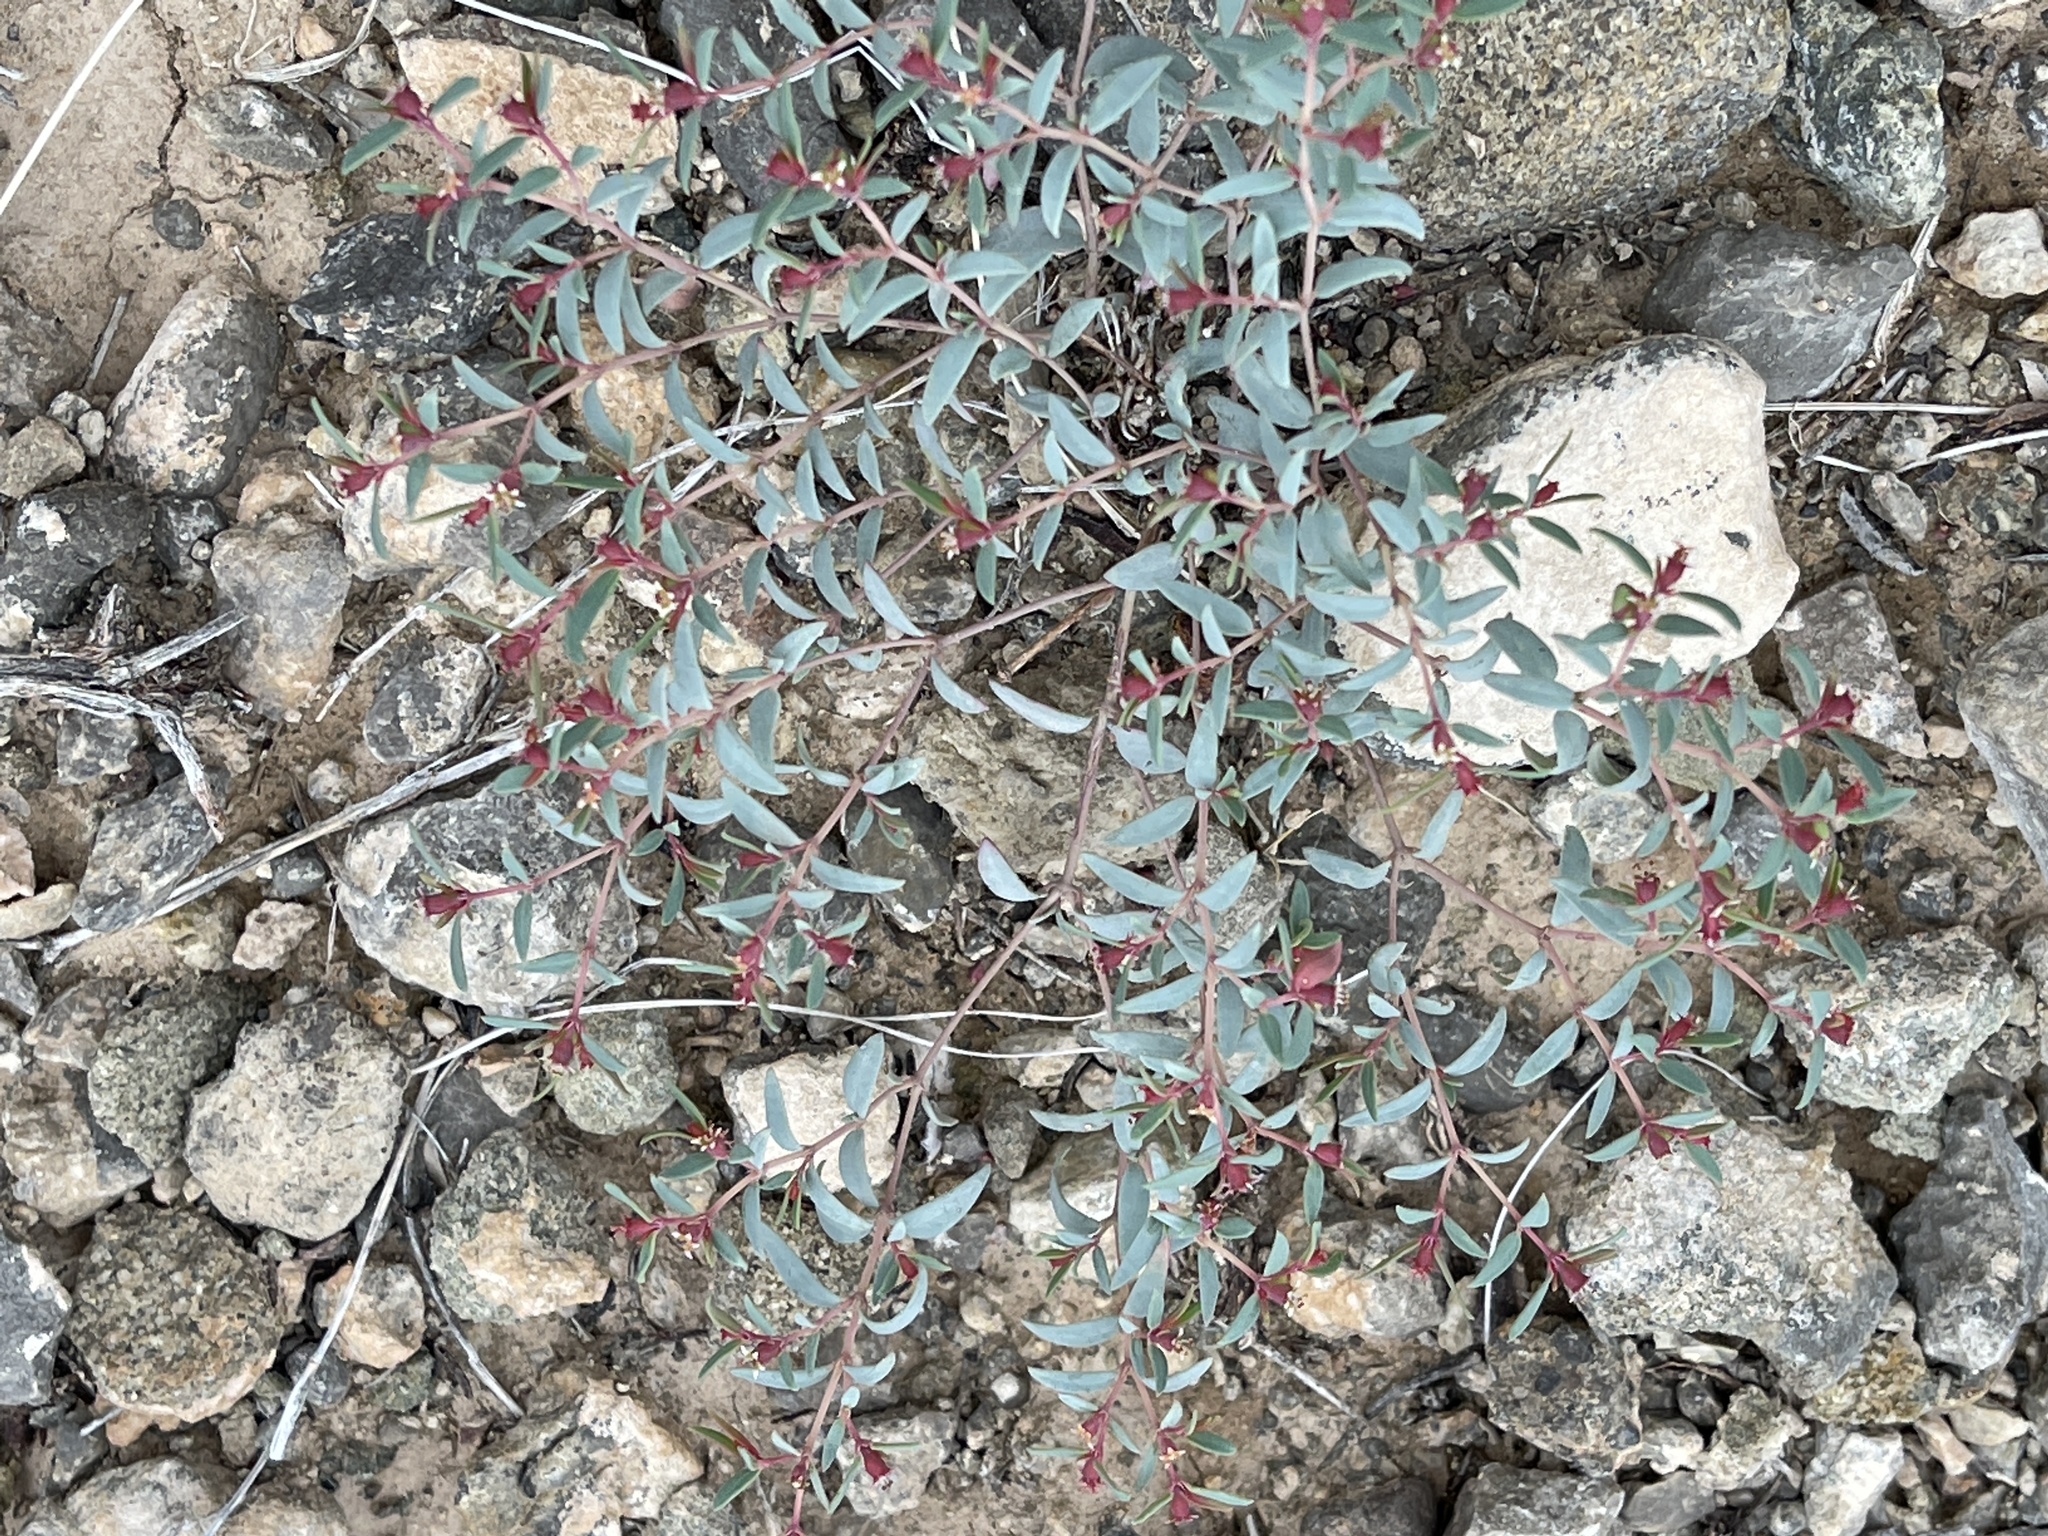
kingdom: Plantae
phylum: Tracheophyta
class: Magnoliopsida
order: Malpighiales
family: Euphorbiaceae
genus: Euphorbia
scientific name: Euphorbia chaetocalyx
